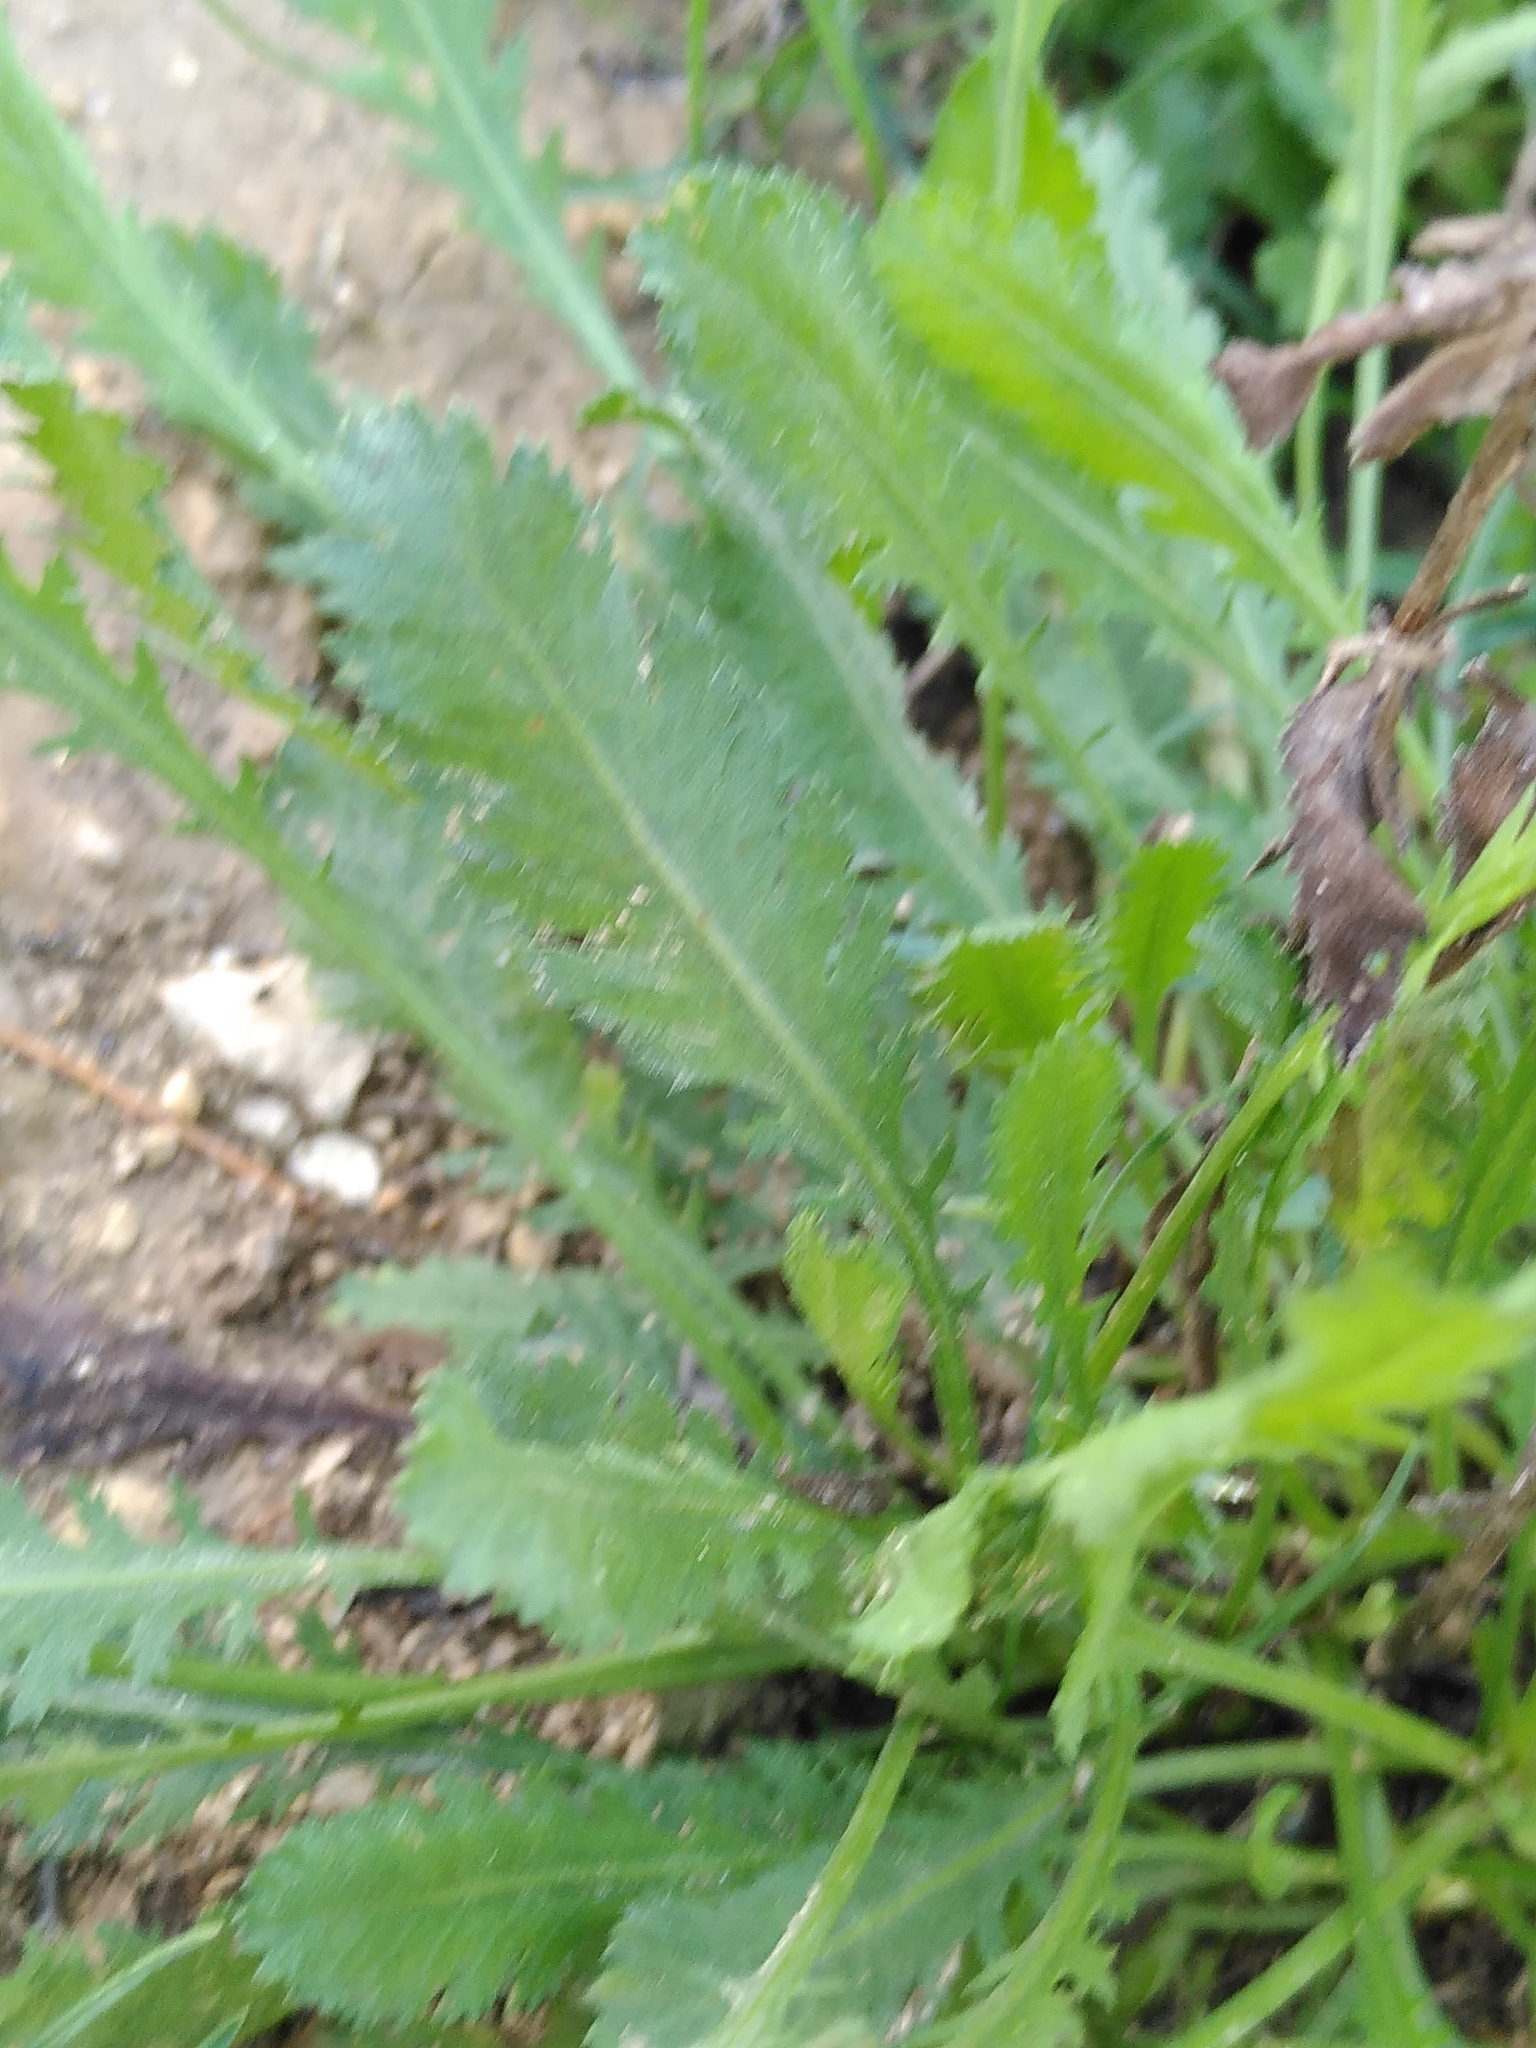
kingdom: Plantae
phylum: Tracheophyta
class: Magnoliopsida
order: Asterales
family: Asteraceae
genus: Achillea
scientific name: Achillea ageratum
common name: Sweet-nancy
